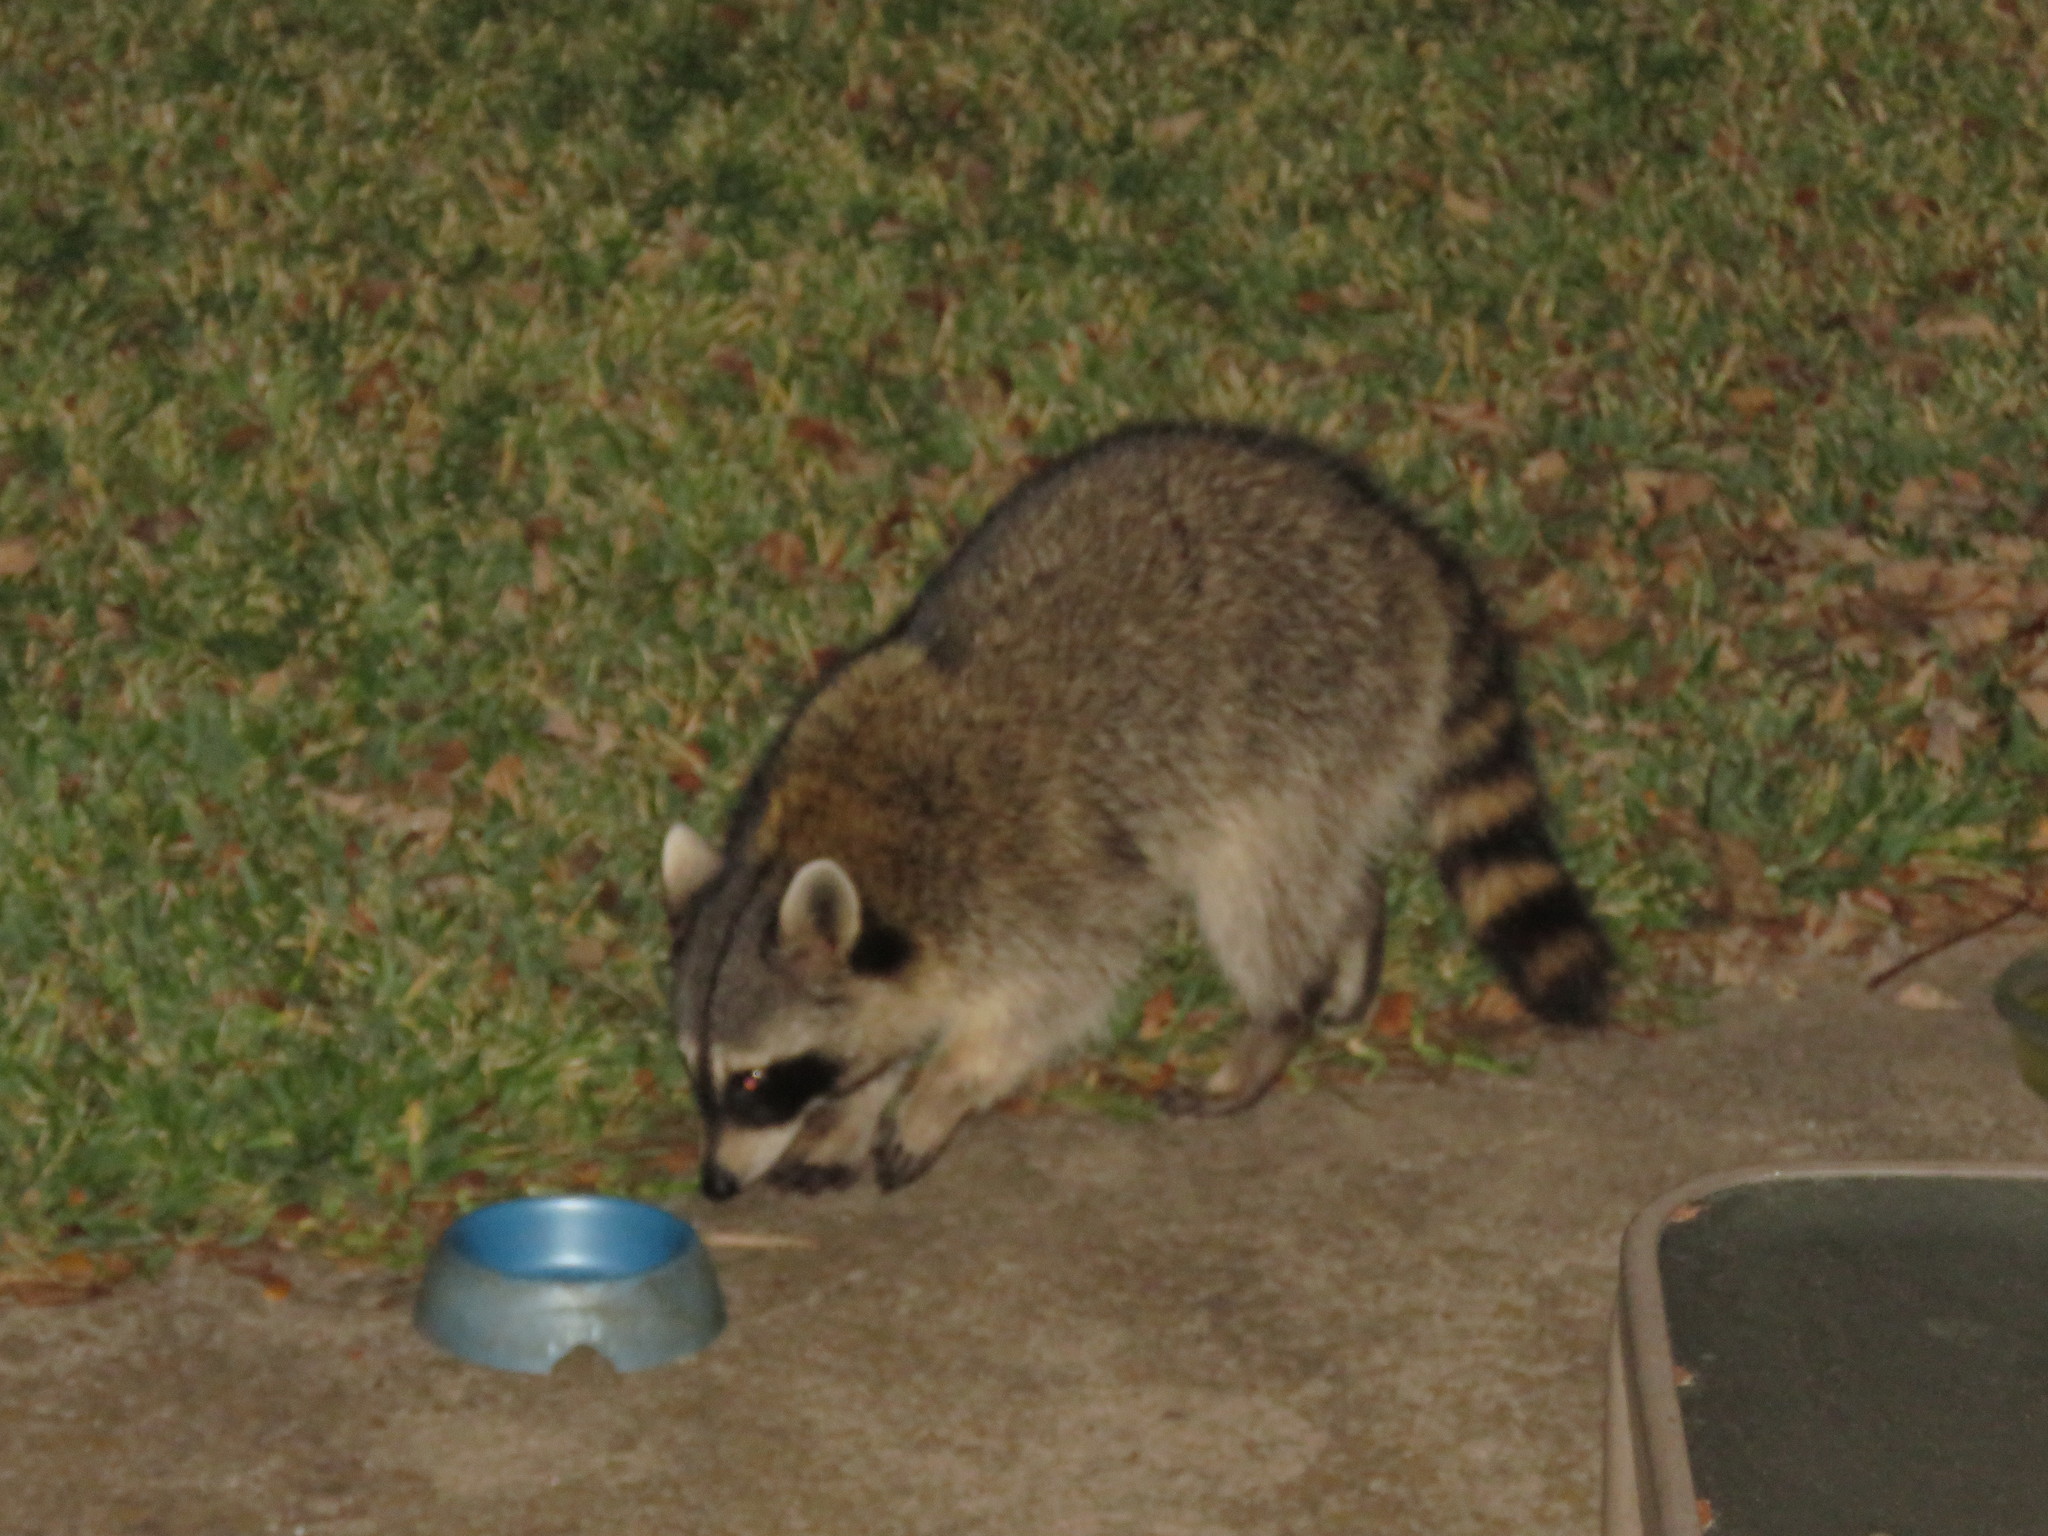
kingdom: Animalia
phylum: Chordata
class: Mammalia
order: Carnivora
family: Procyonidae
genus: Procyon
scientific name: Procyon lotor
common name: Raccoon
